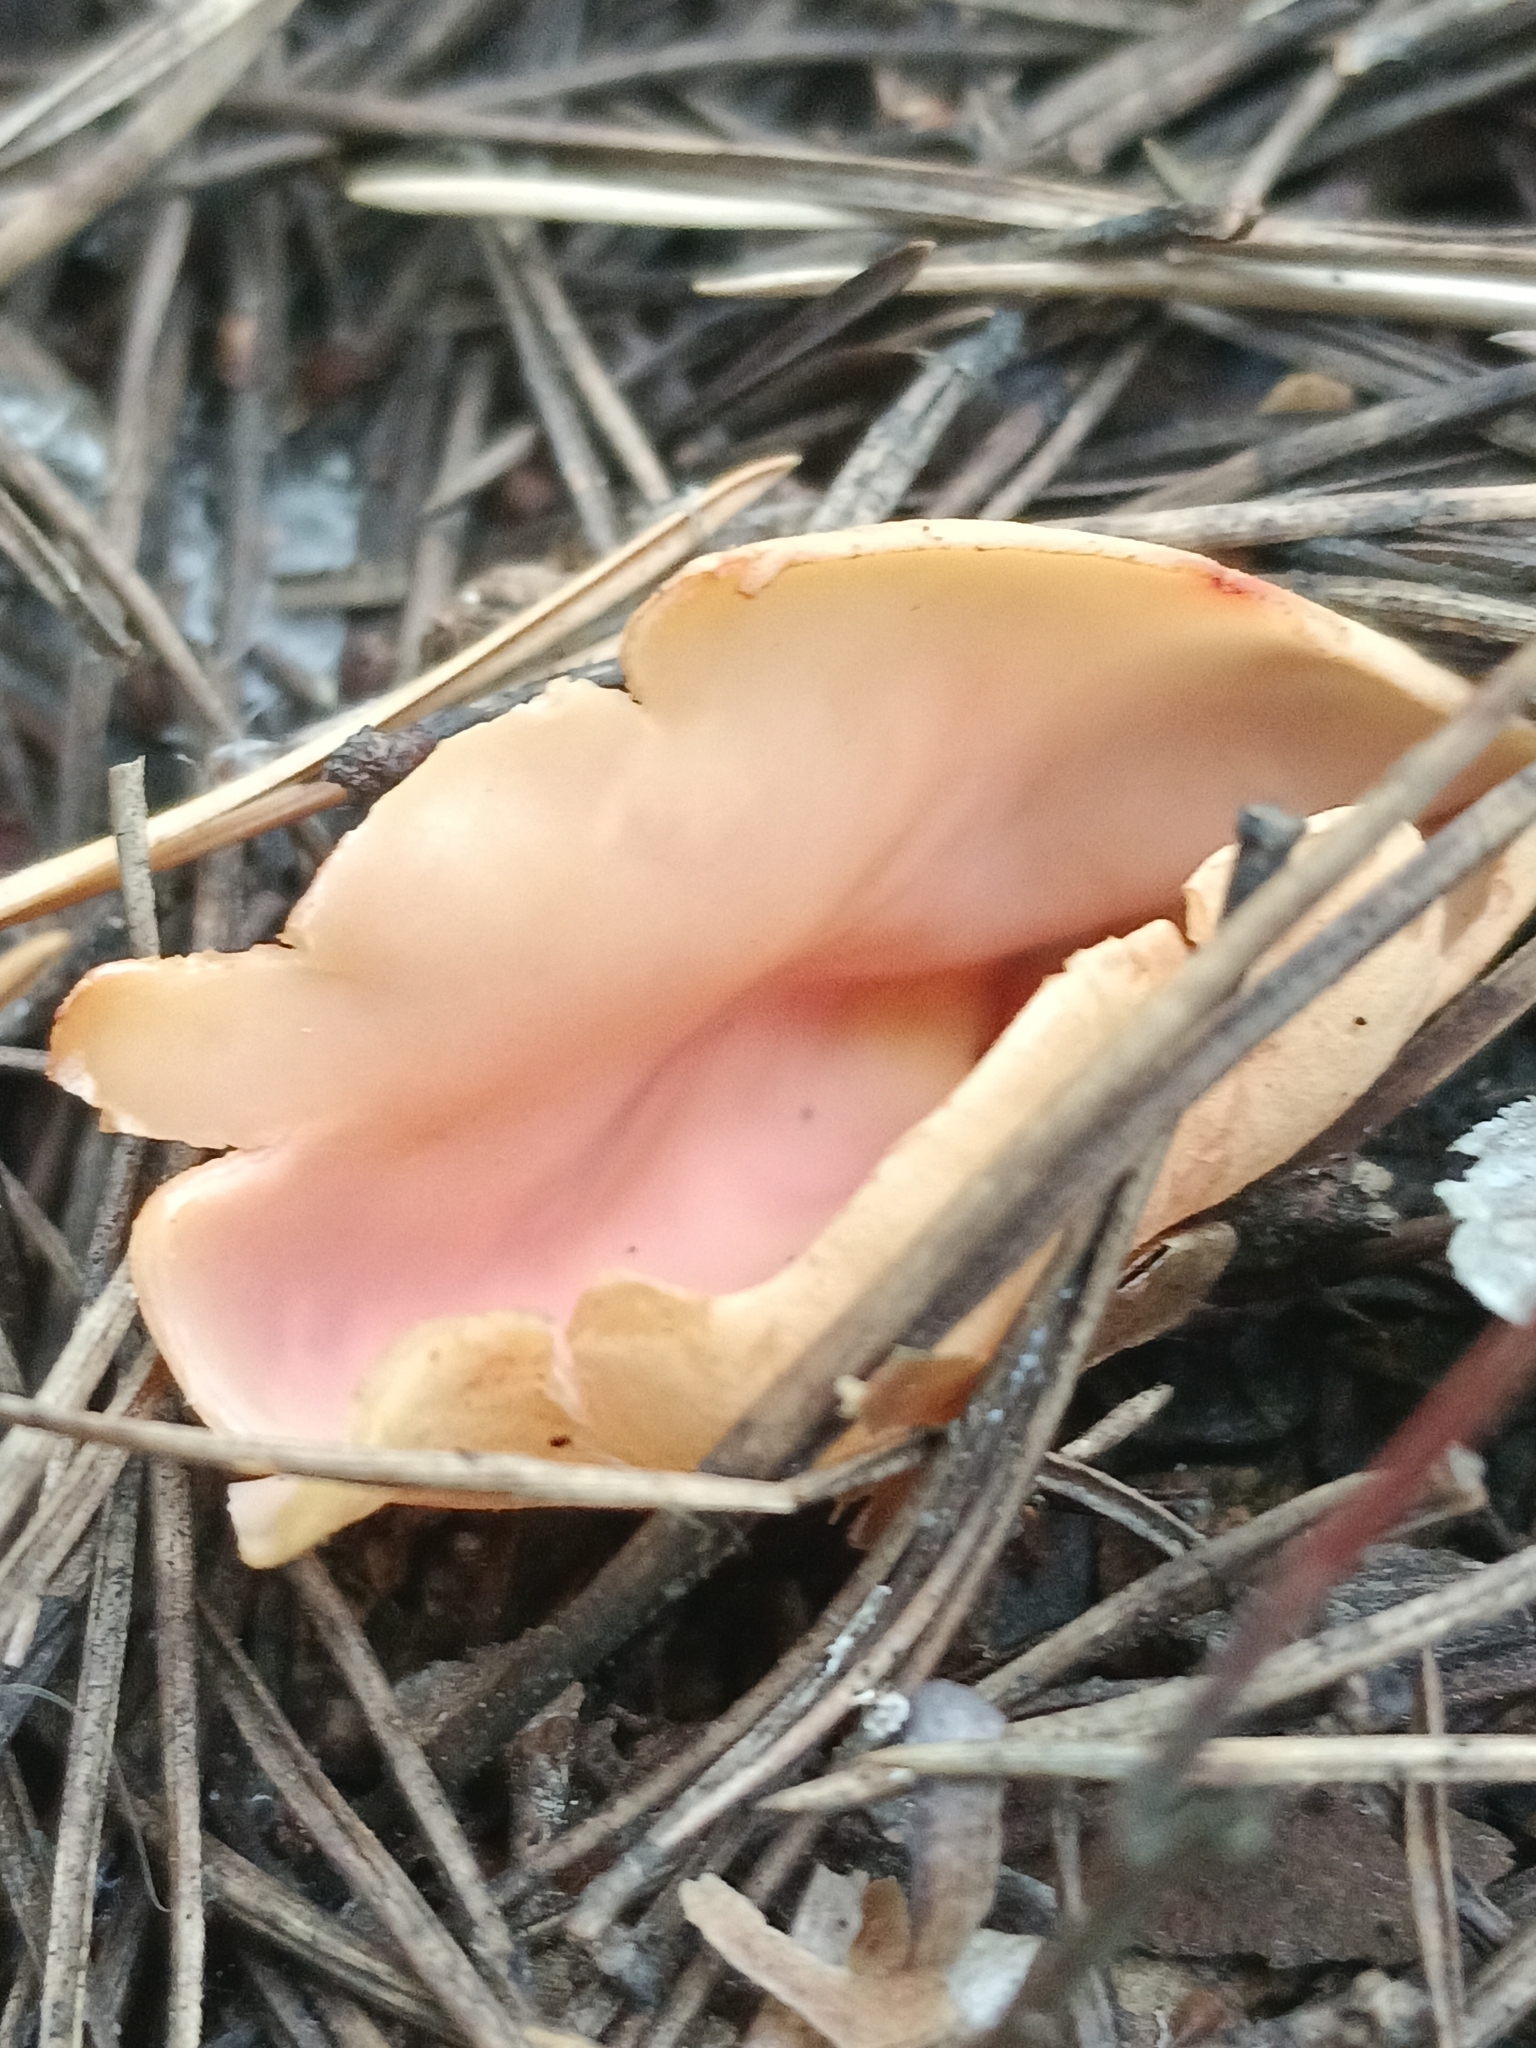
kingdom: Fungi
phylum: Ascomycota
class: Pezizomycetes
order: Pezizales
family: Otideaceae
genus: Otidea
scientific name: Otidea onotica
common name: Hare's ear
